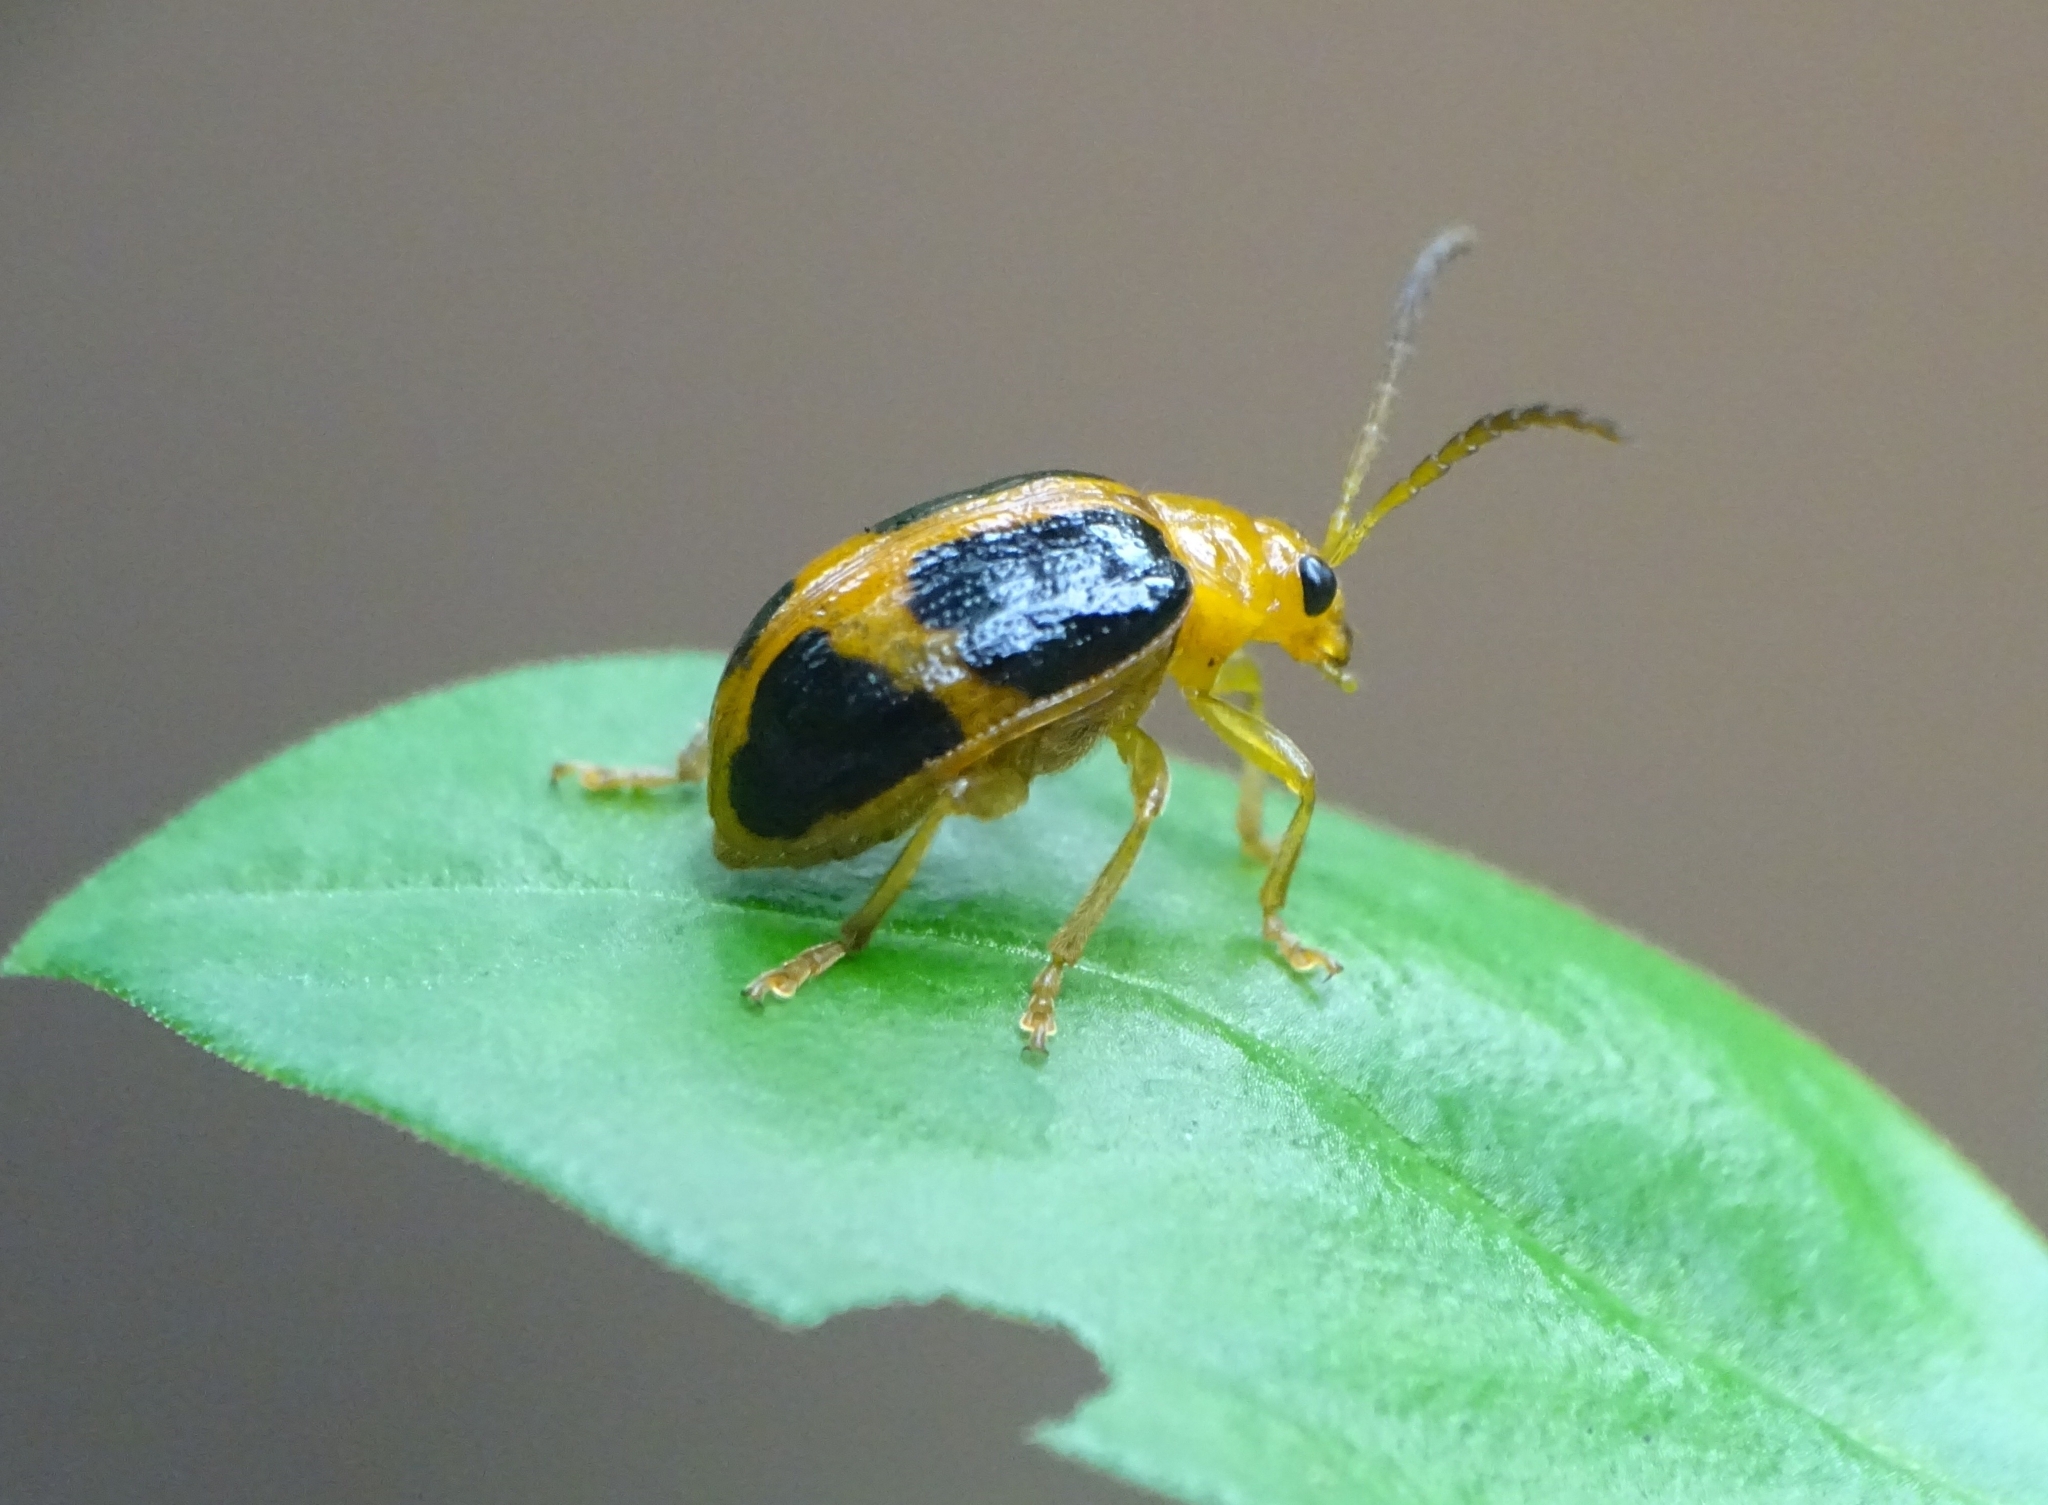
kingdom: Animalia
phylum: Arthropoda
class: Insecta
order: Coleoptera
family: Chrysomelidae
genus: Sphenoraia
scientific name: Sphenoraia
